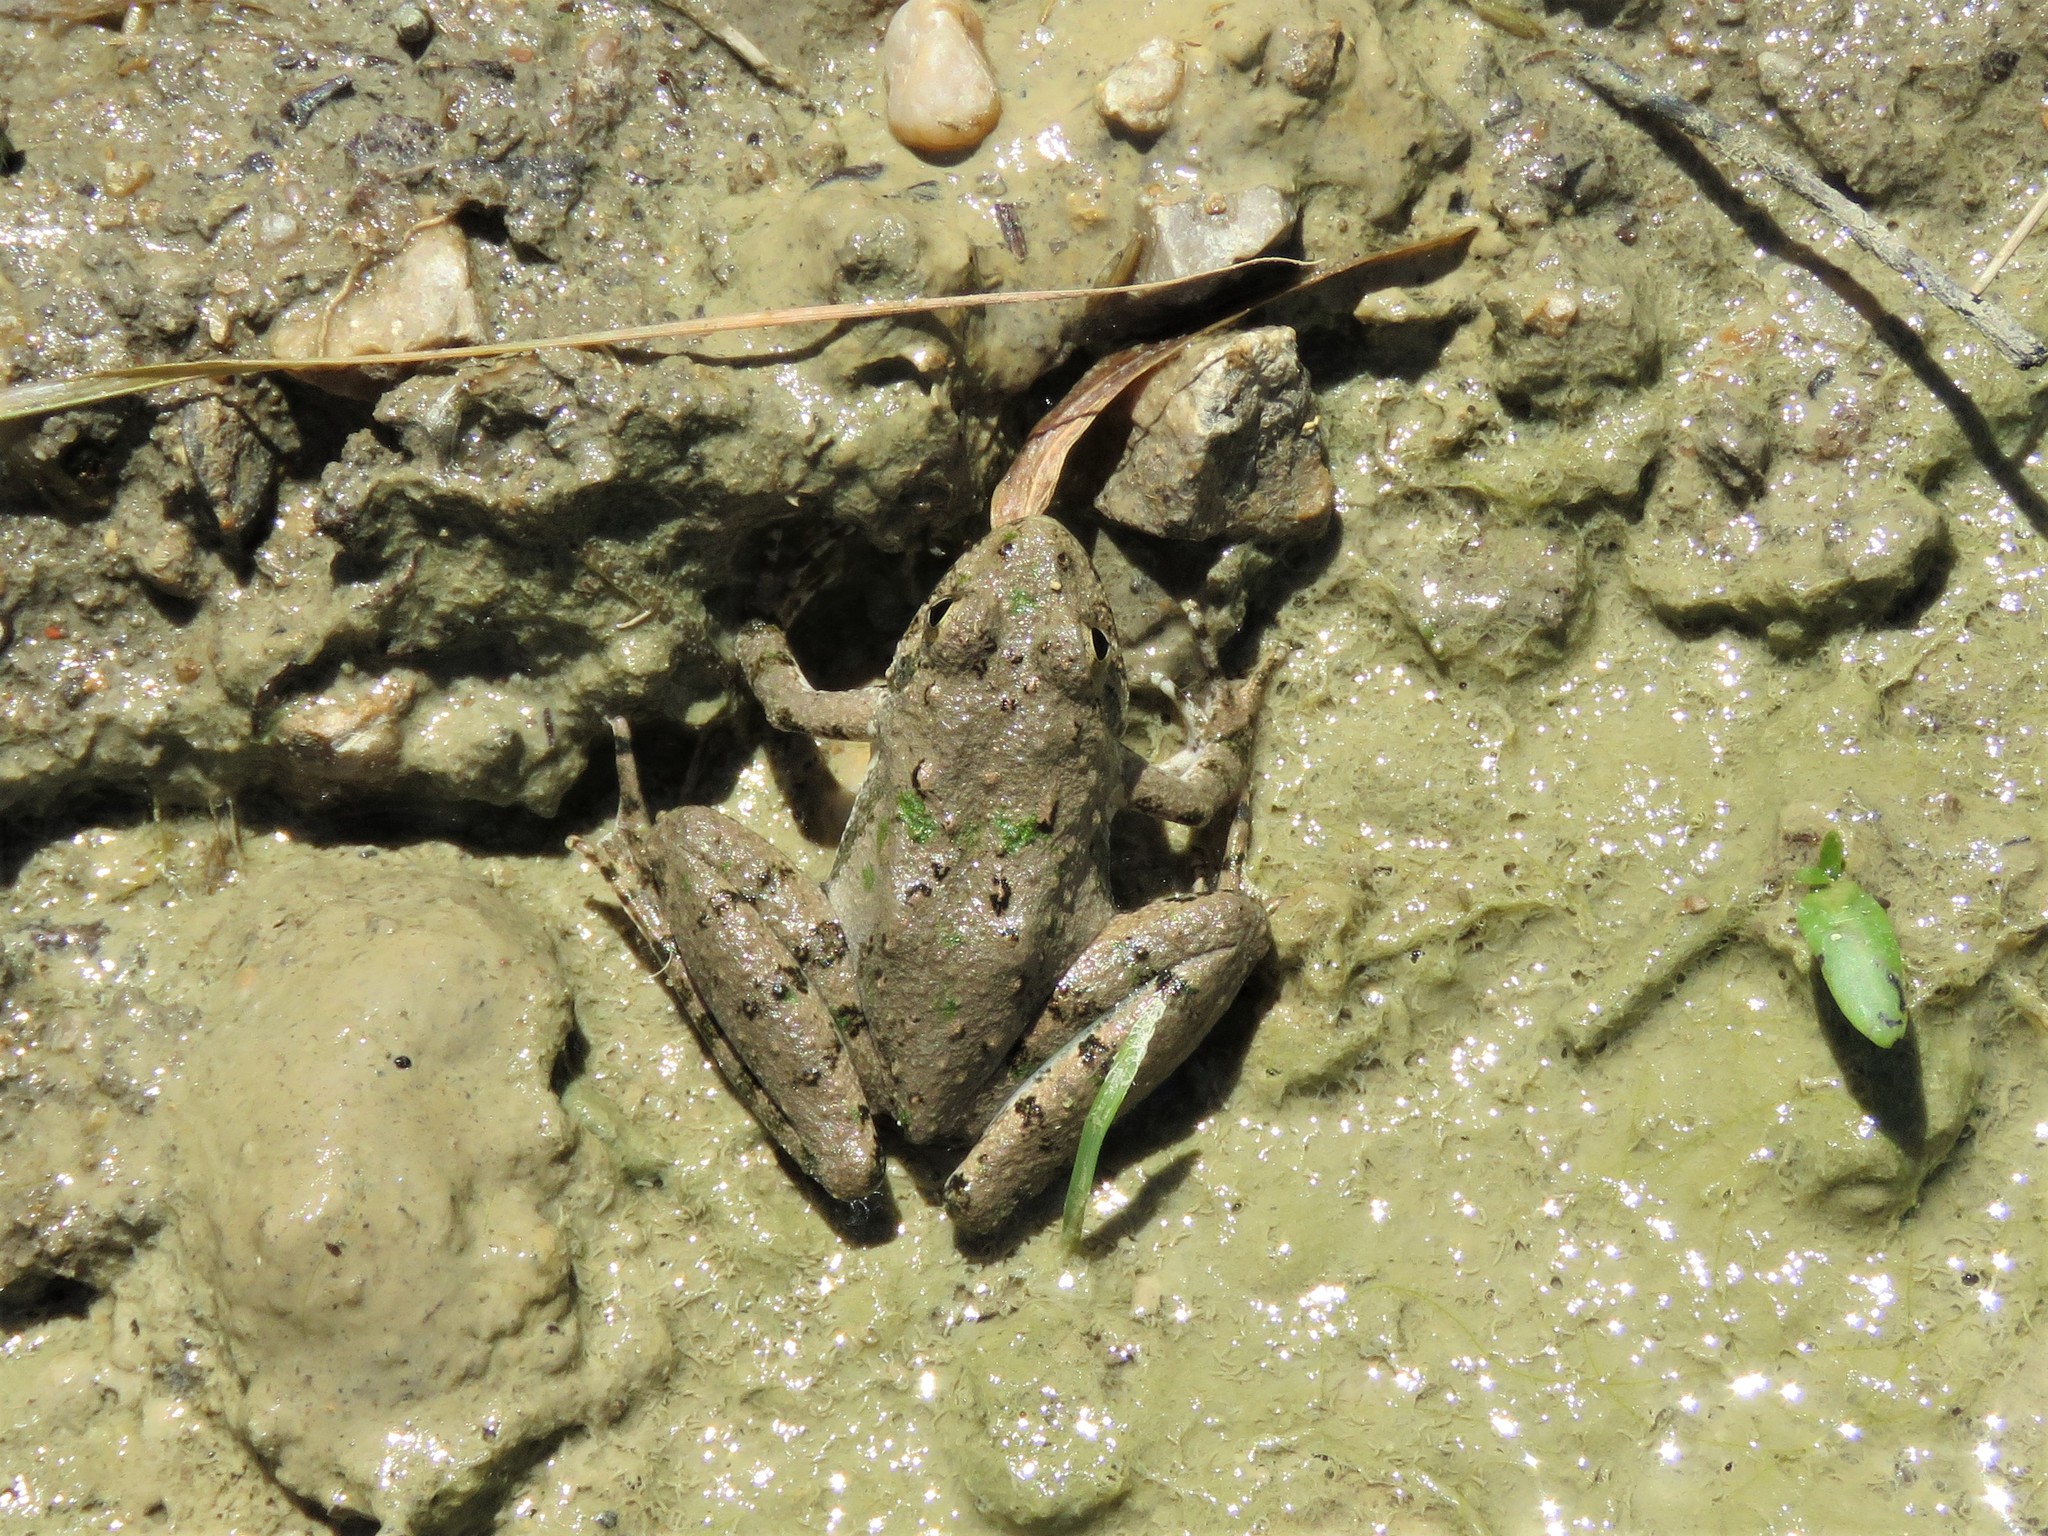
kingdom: Animalia
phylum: Chordata
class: Amphibia
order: Anura
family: Hylidae
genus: Acris
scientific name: Acris blanchardi
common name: Blanchard's cricket frog
